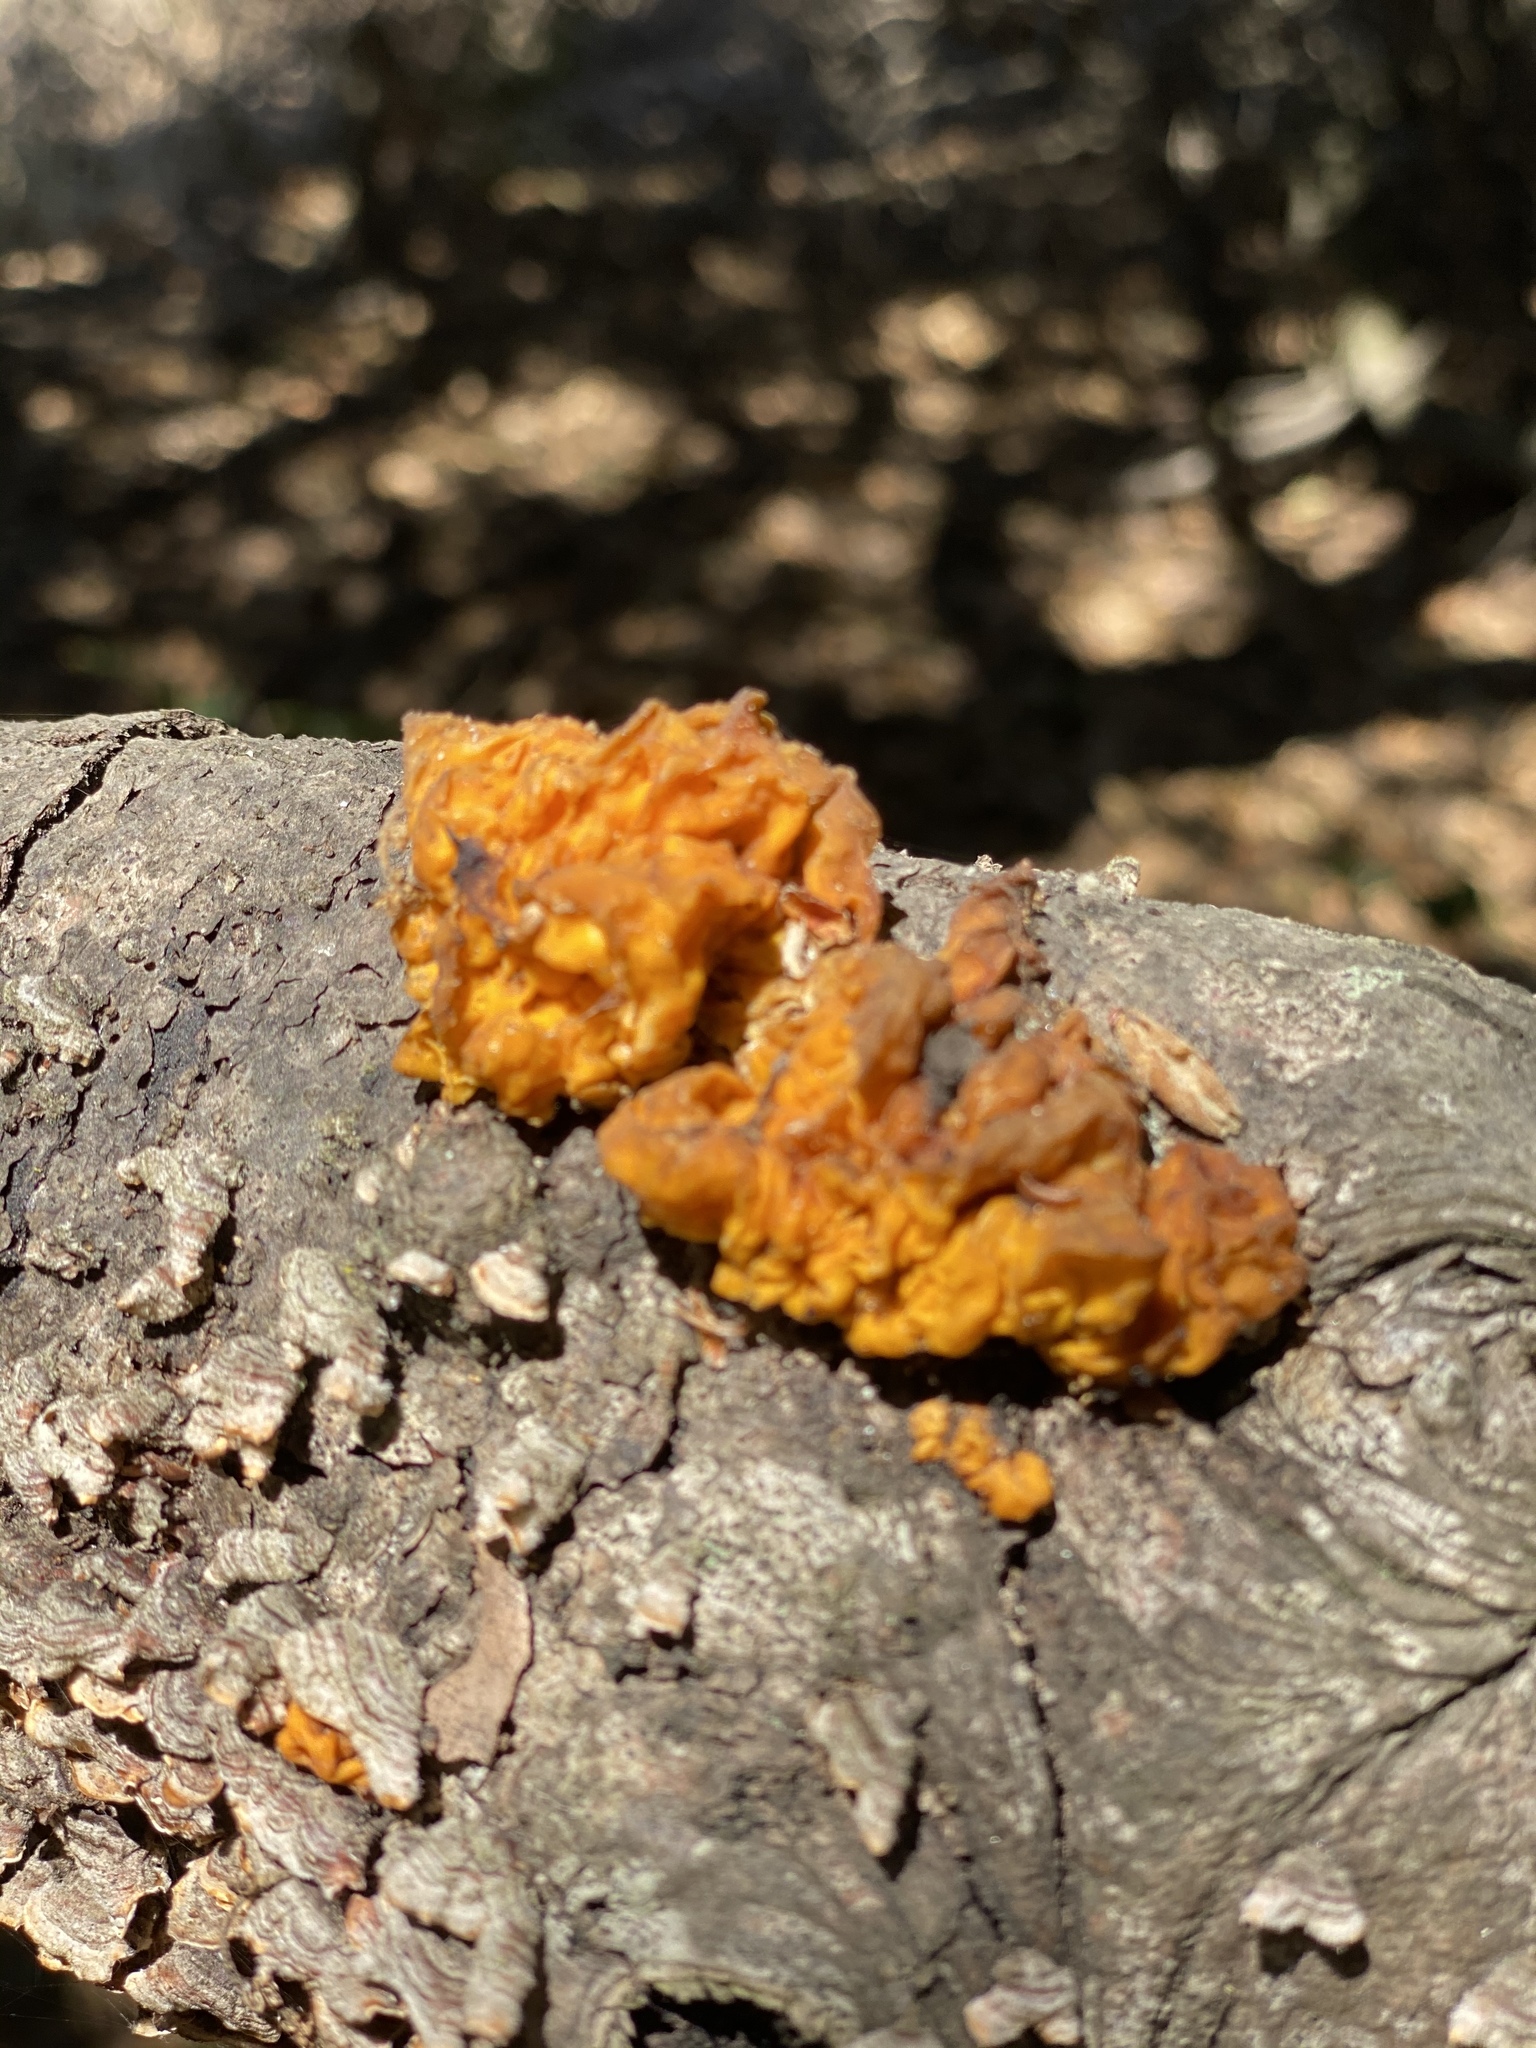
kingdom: Fungi
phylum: Basidiomycota
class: Tremellomycetes
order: Tremellales
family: Naemateliaceae
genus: Naematelia
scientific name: Naematelia aurantia
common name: Golden ear
